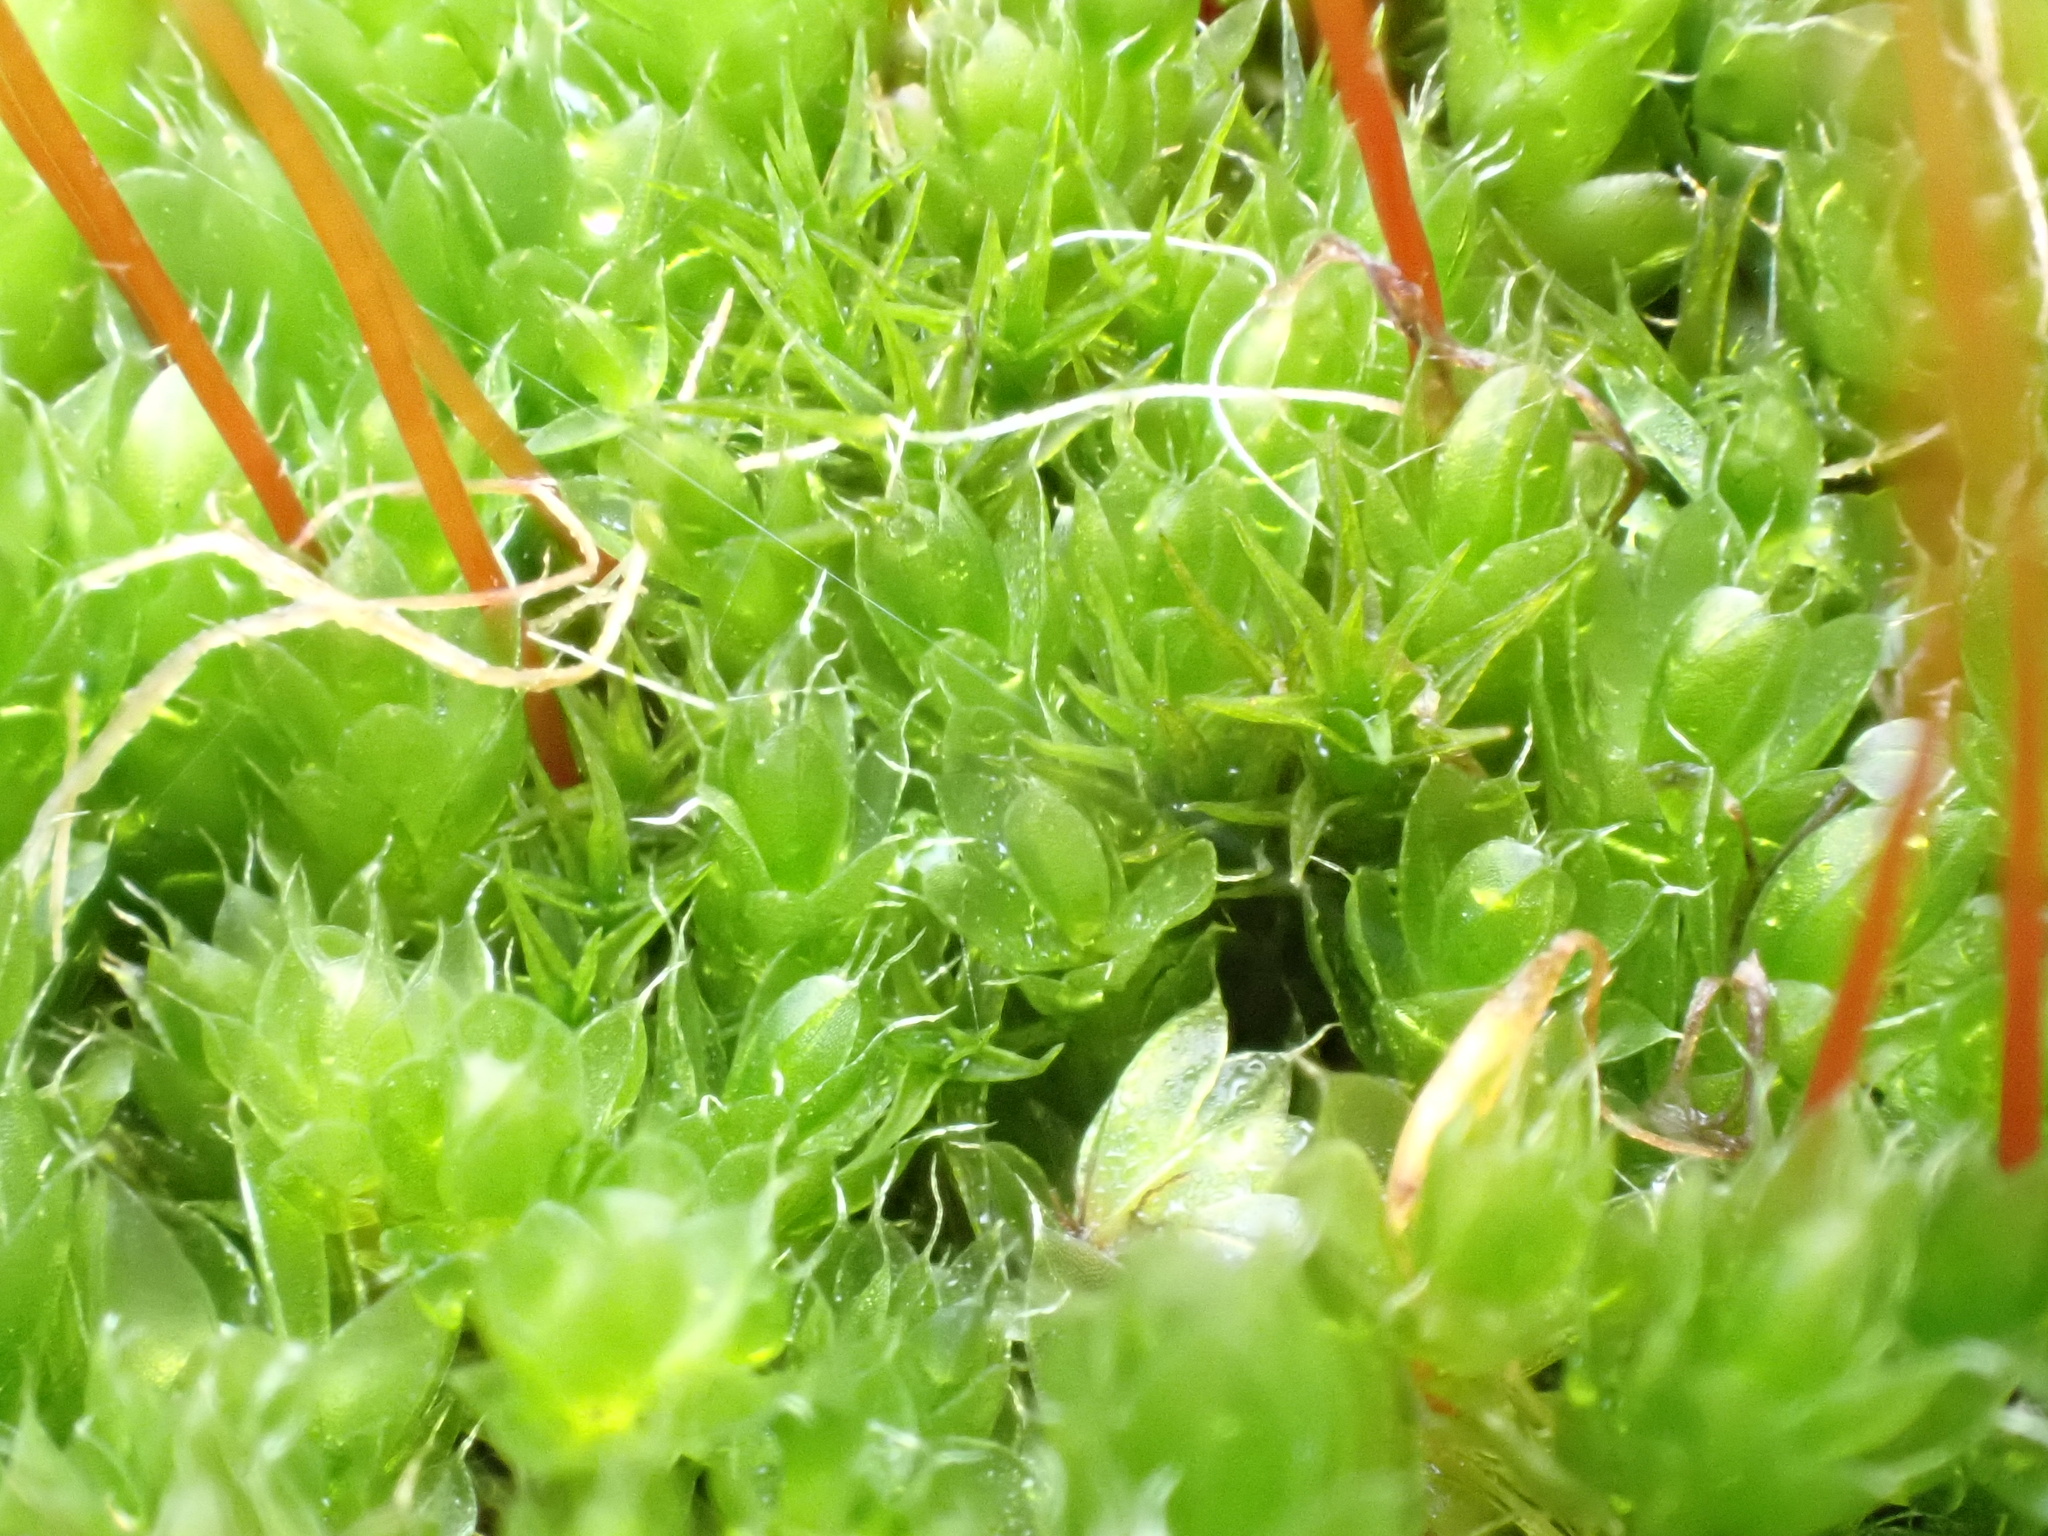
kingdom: Plantae
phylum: Bryophyta
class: Bryopsida
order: Bryales
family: Bryaceae
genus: Rosulabryum
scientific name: Rosulabryum capillare
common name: Capillary thread-moss
